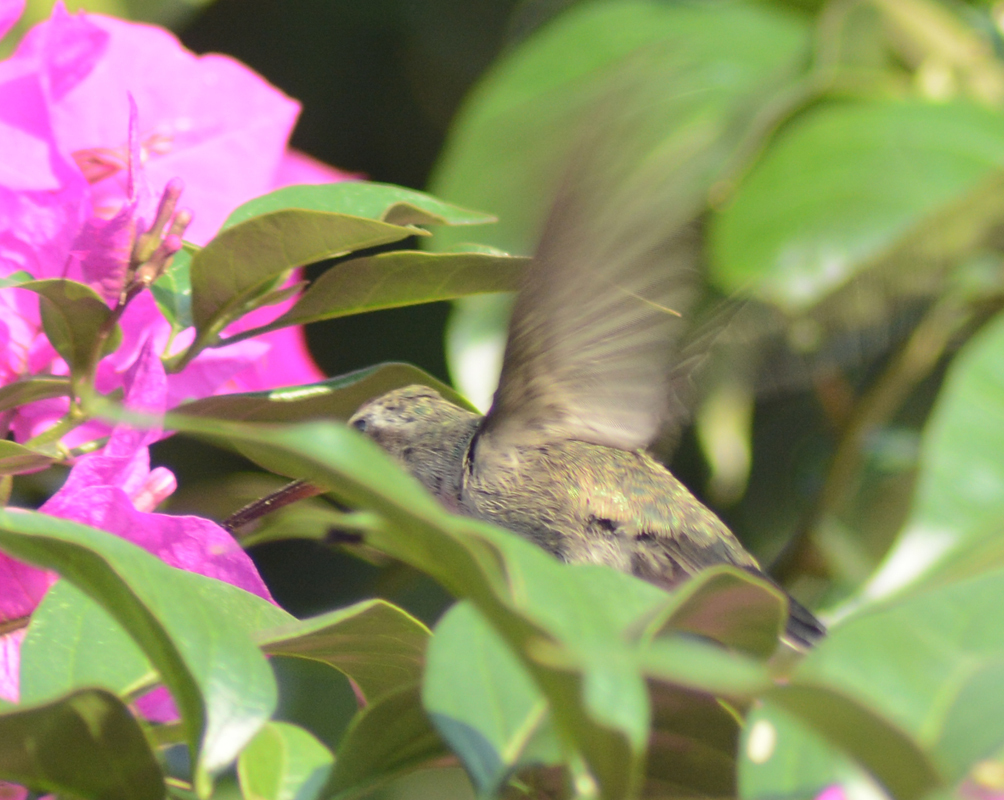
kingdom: Animalia
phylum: Chordata
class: Aves
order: Apodiformes
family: Trochilidae
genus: Cynanthus
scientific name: Cynanthus latirostris
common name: Broad-billed hummingbird
